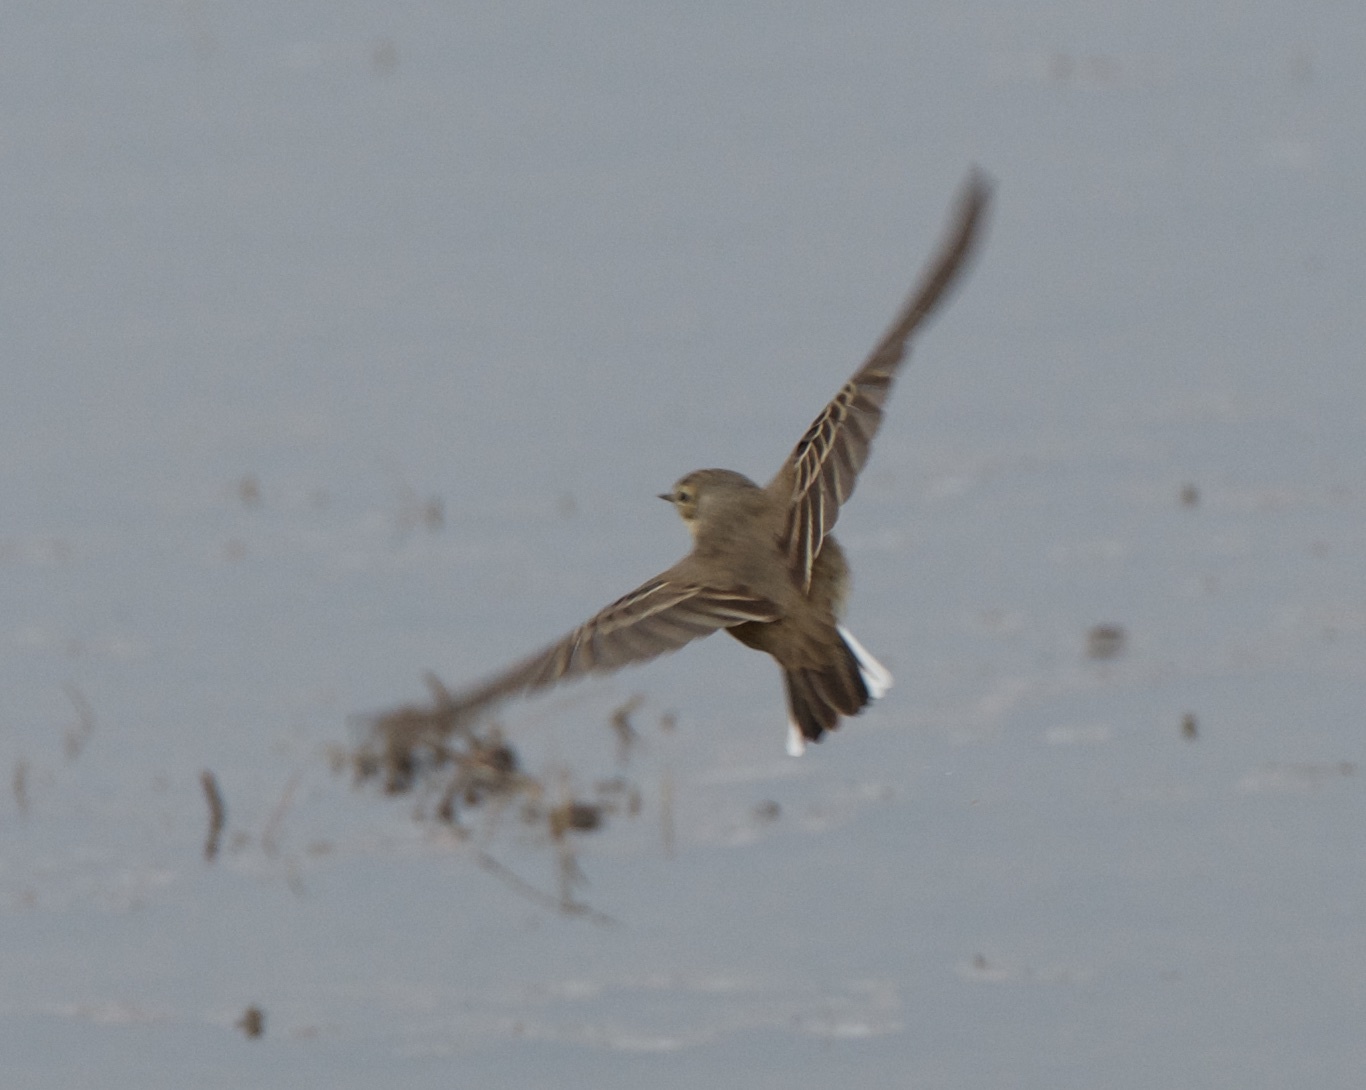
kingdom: Animalia
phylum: Chordata
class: Aves
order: Passeriformes
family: Motacillidae
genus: Anthus
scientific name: Anthus rubescens
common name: Buff-bellied pipit
